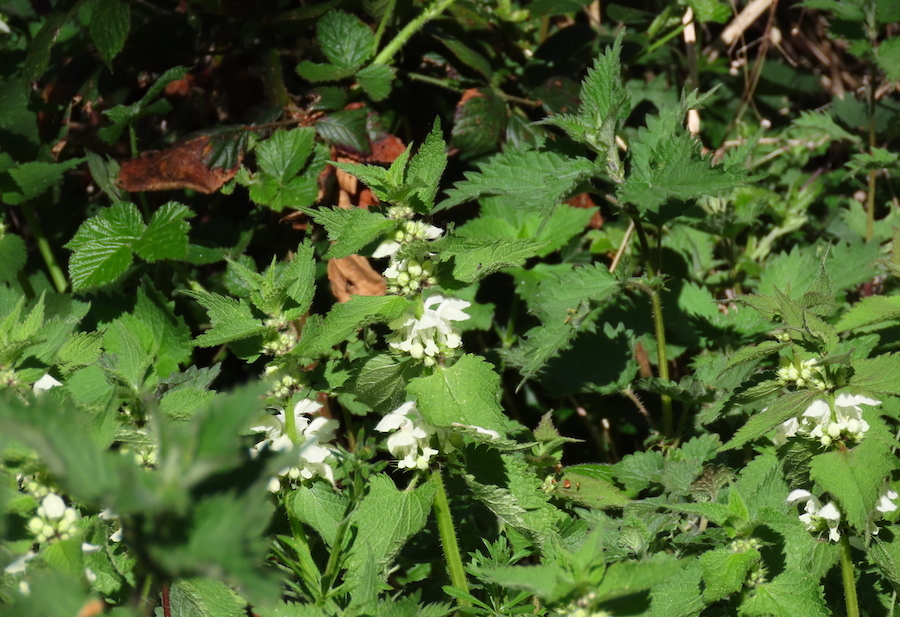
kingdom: Plantae
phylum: Tracheophyta
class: Magnoliopsida
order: Lamiales
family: Lamiaceae
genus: Lamium
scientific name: Lamium album
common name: White dead-nettle
